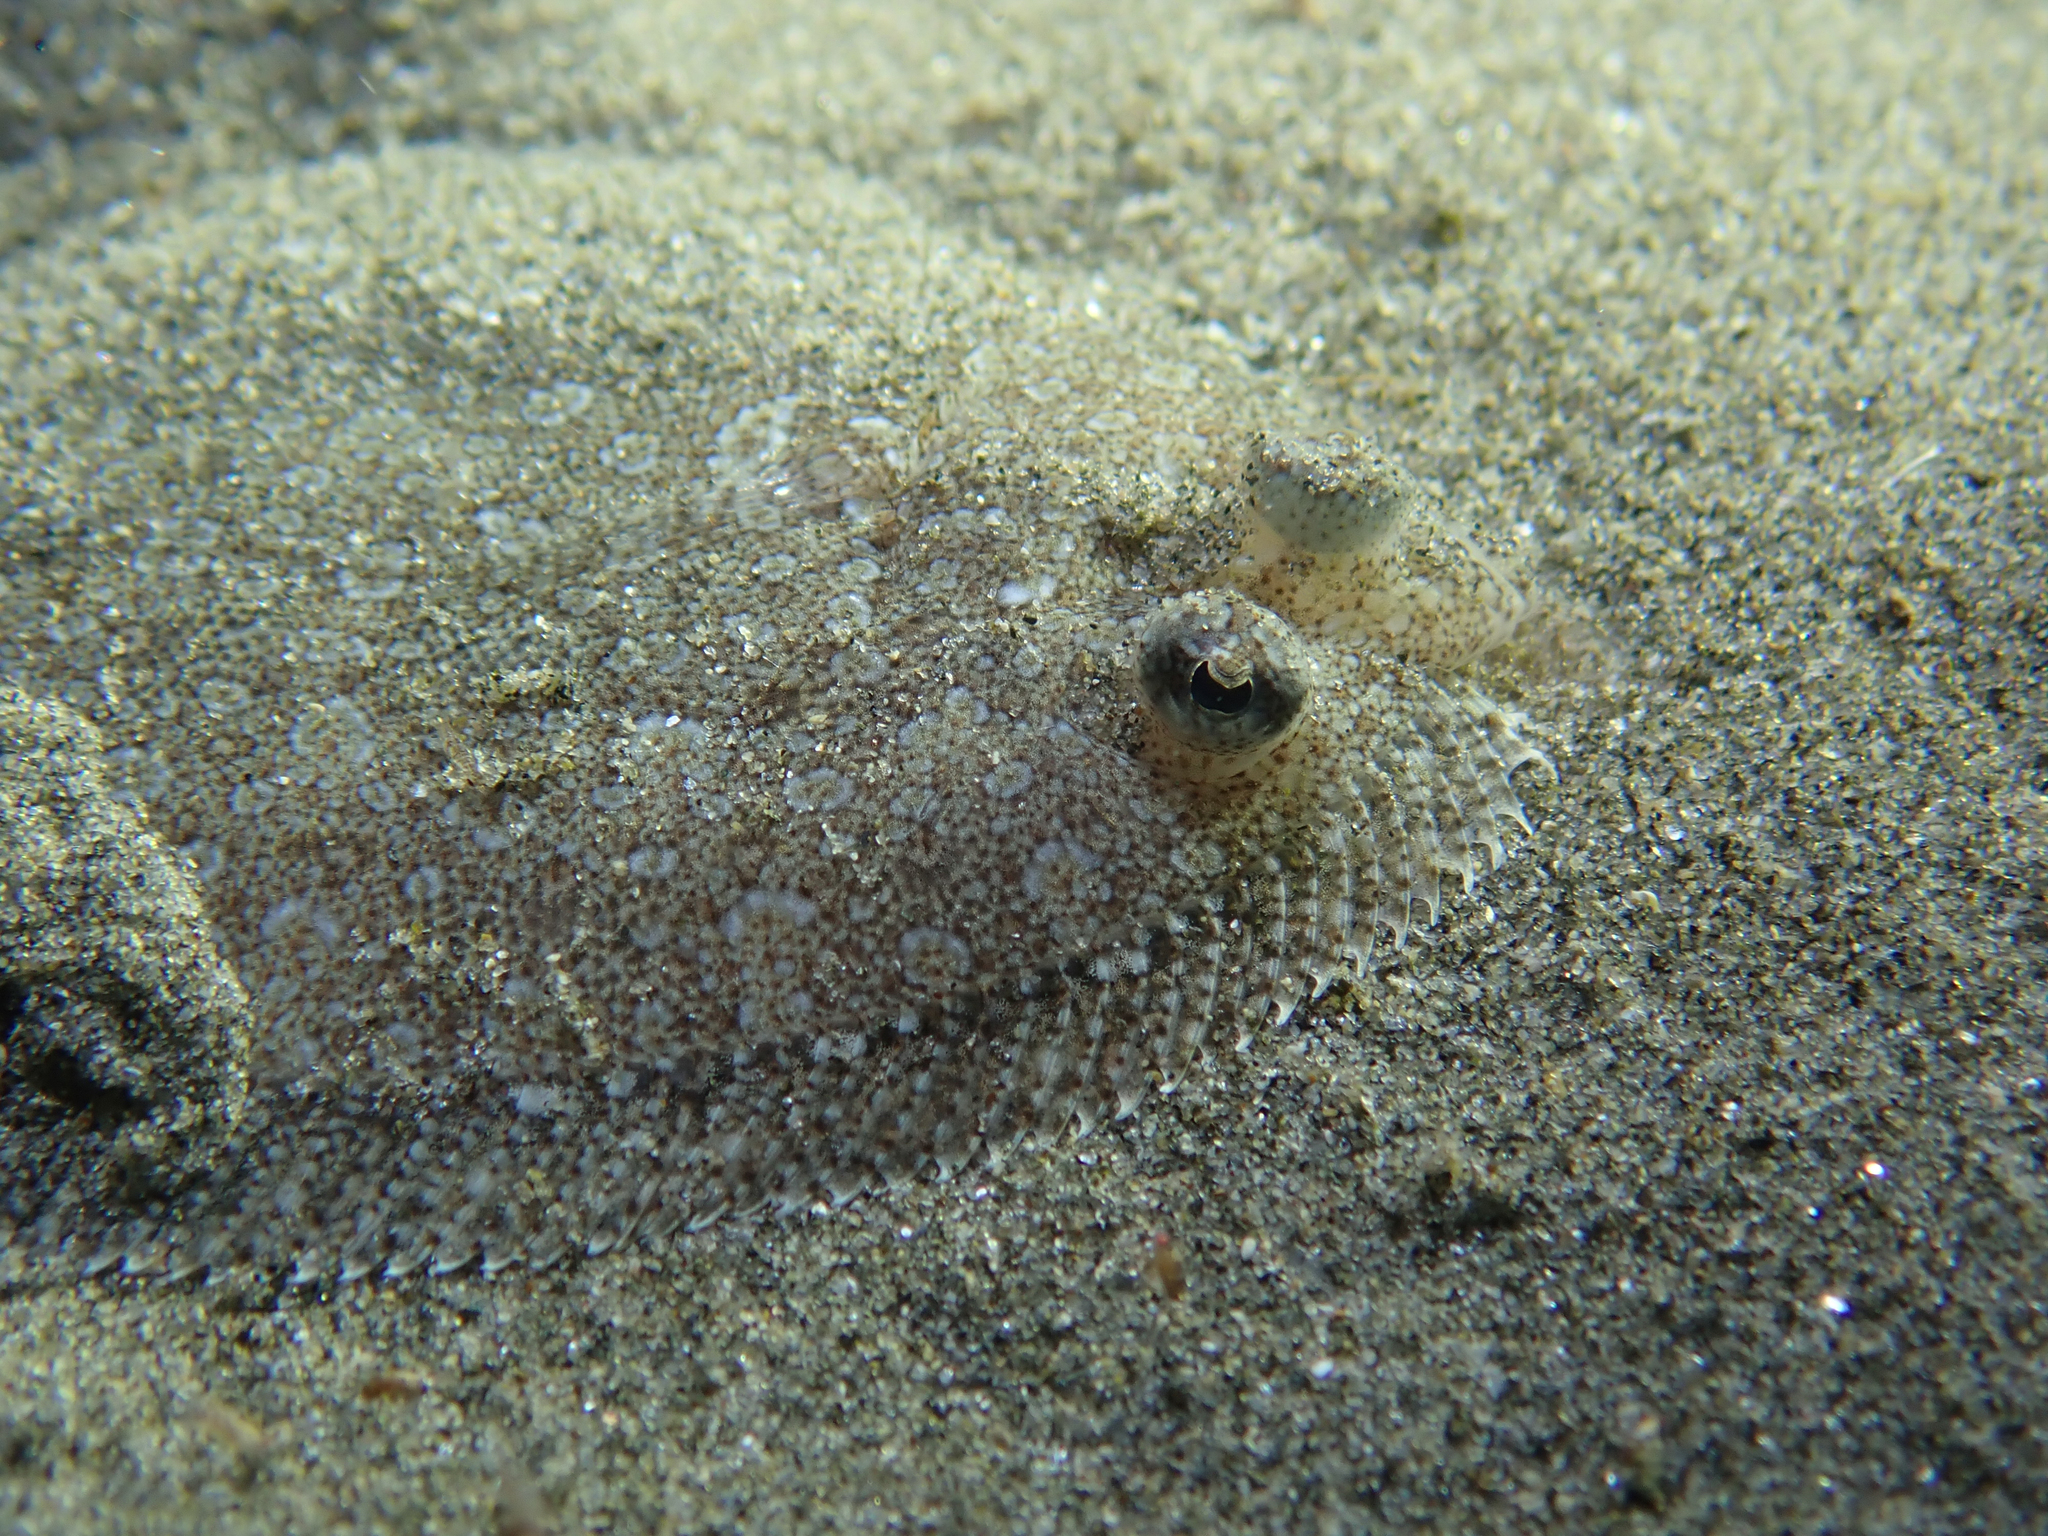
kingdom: Animalia
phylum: Chordata
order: Pleuronectiformes
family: Bothidae
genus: Bothus
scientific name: Bothus podas
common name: Wide-eyed flounder
